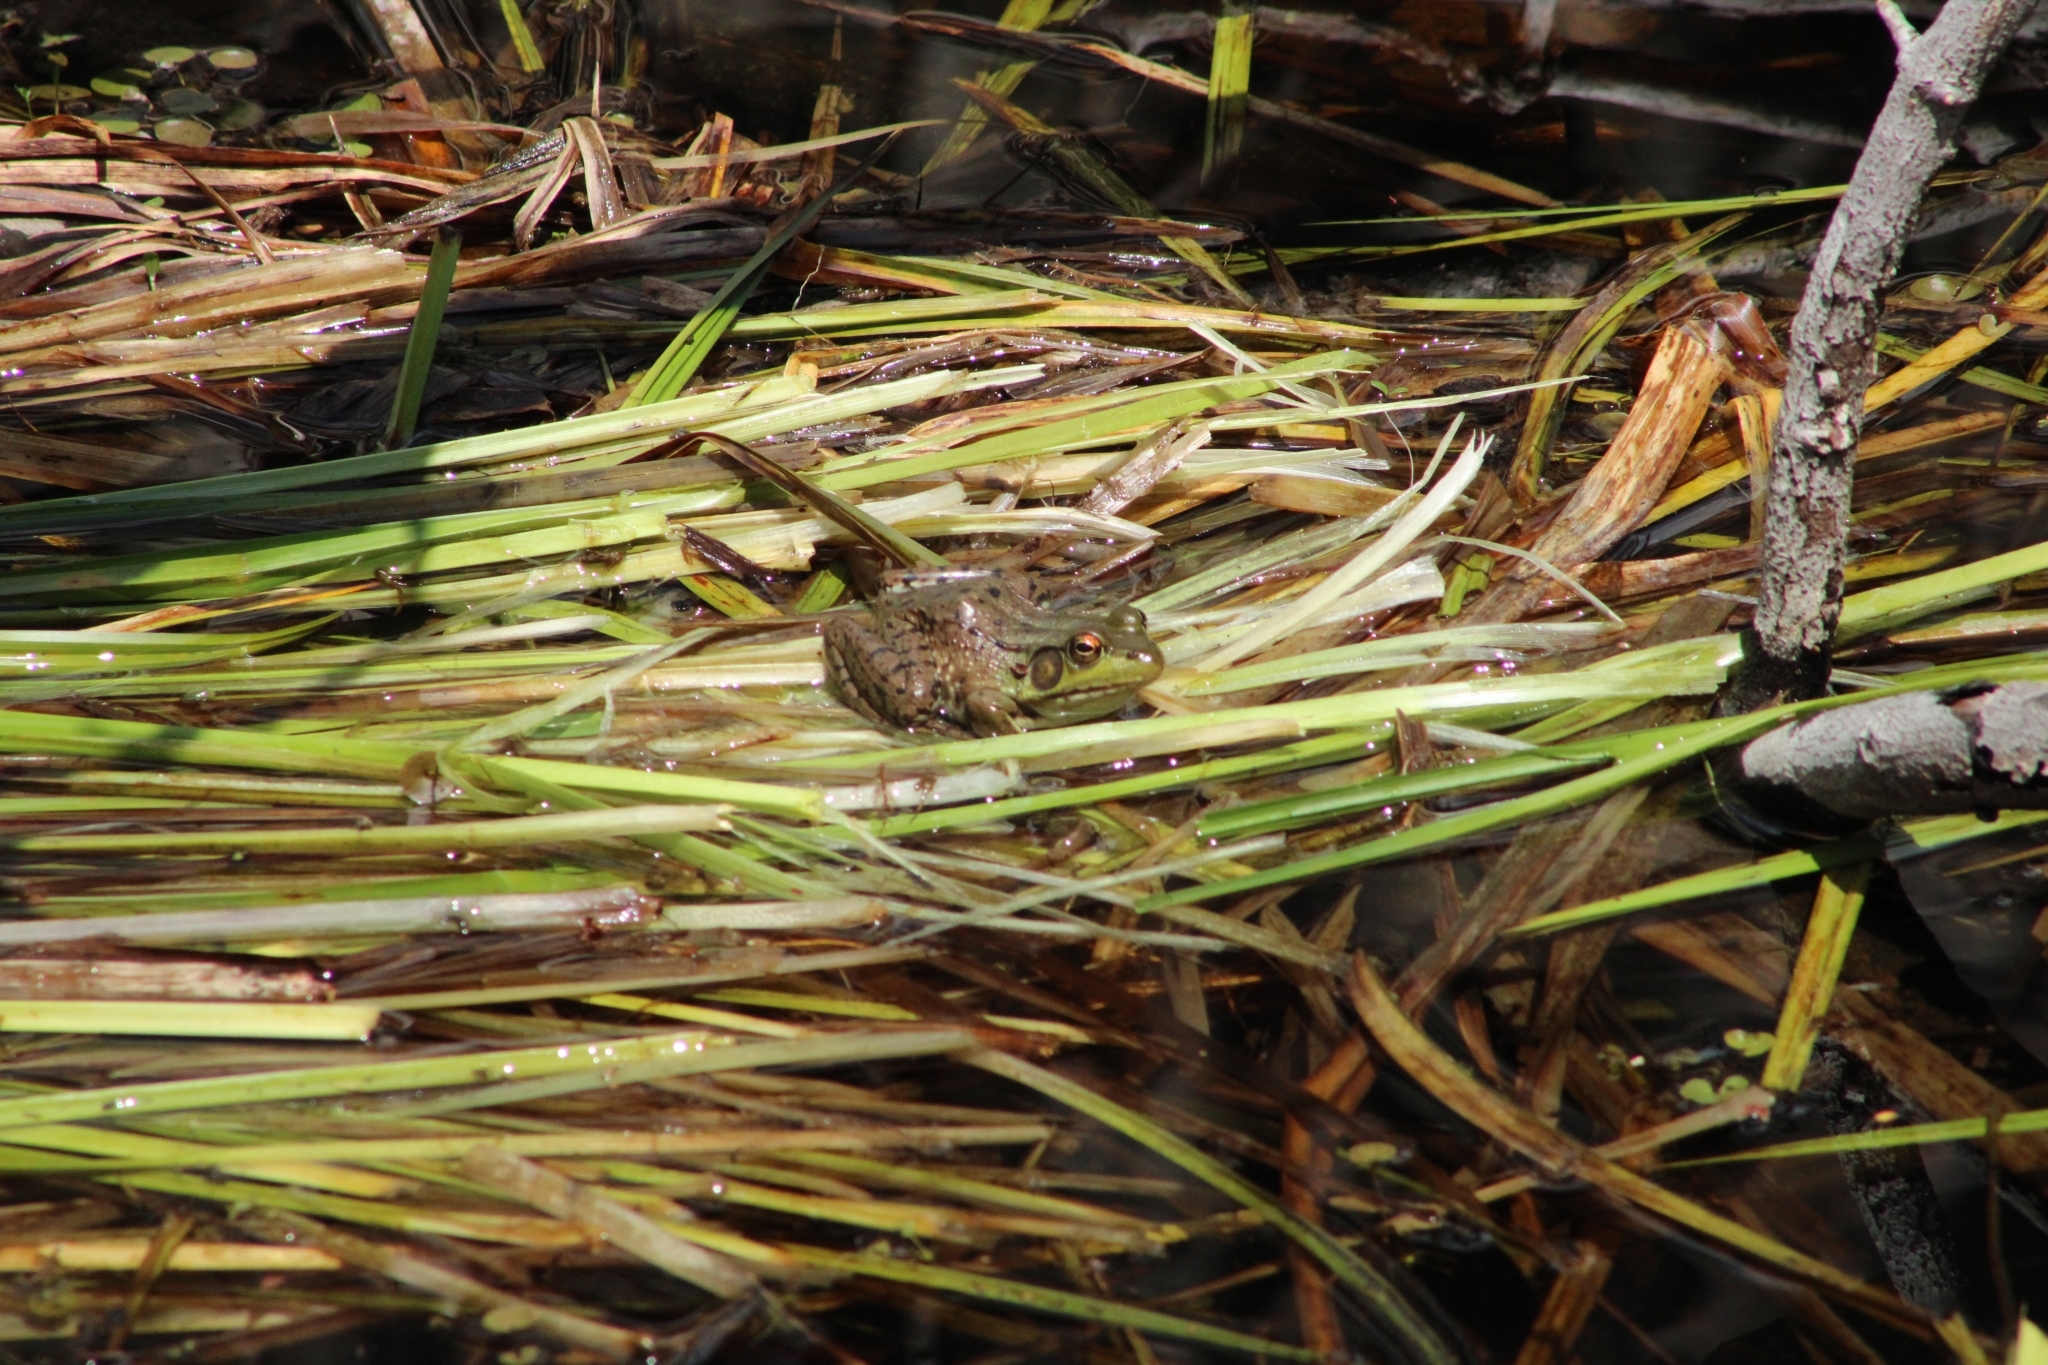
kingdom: Animalia
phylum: Chordata
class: Amphibia
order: Anura
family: Ranidae
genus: Lithobates
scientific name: Lithobates clamitans
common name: Green frog
